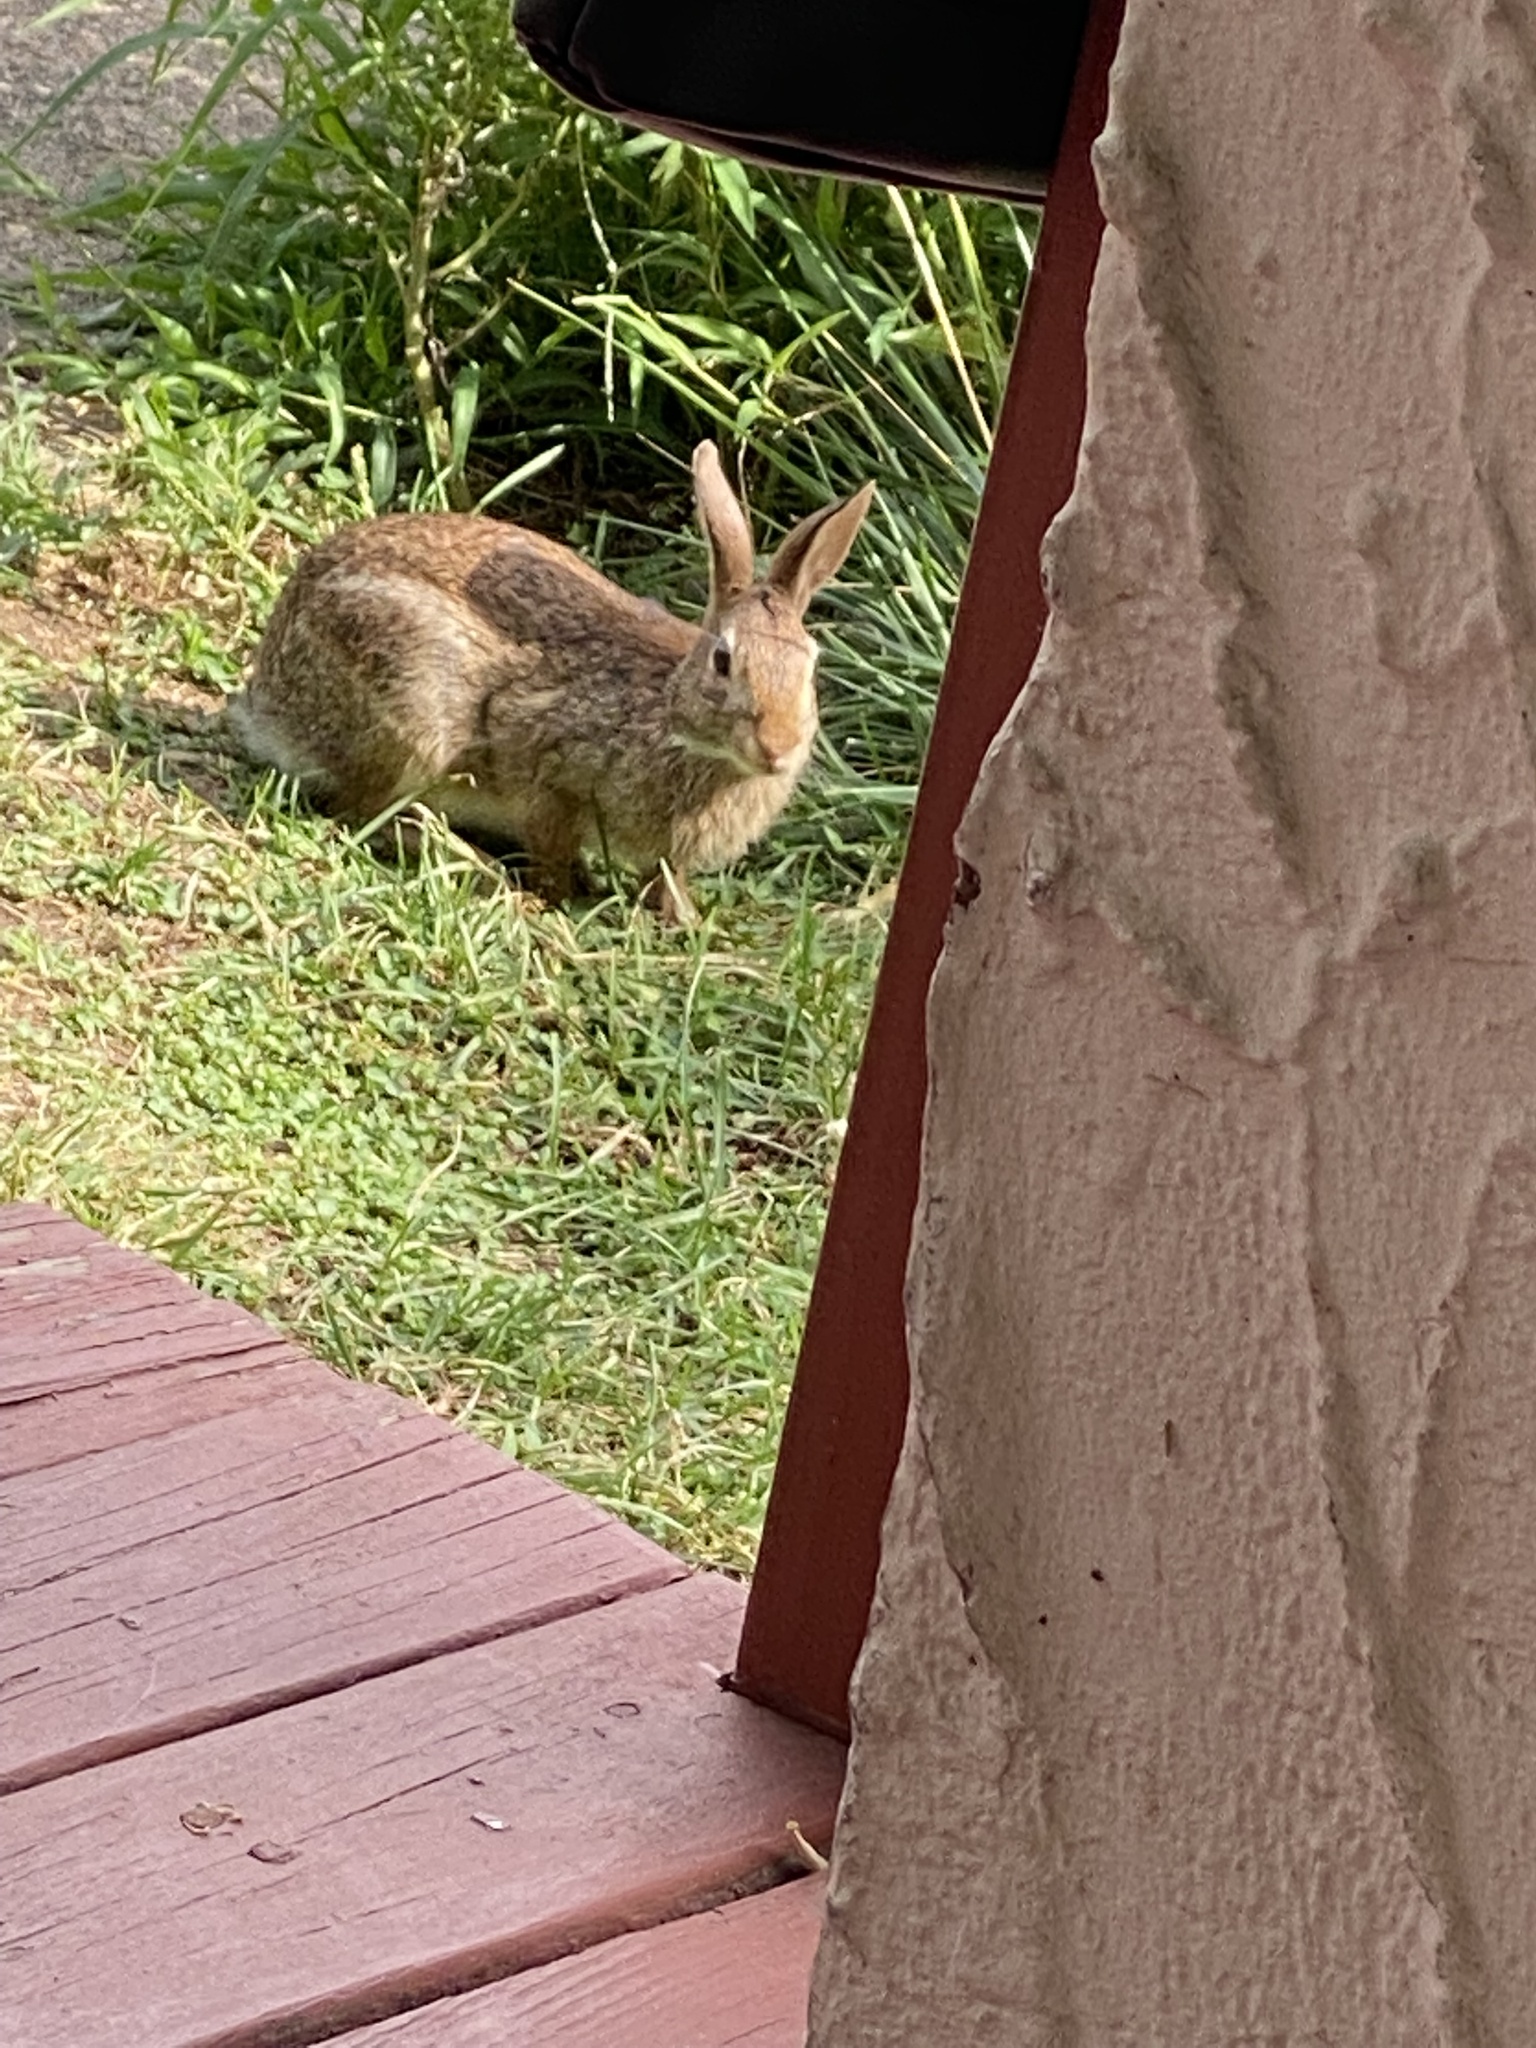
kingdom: Animalia
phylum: Chordata
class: Mammalia
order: Lagomorpha
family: Leporidae
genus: Sylvilagus
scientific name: Sylvilagus floridanus
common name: Eastern cottontail
